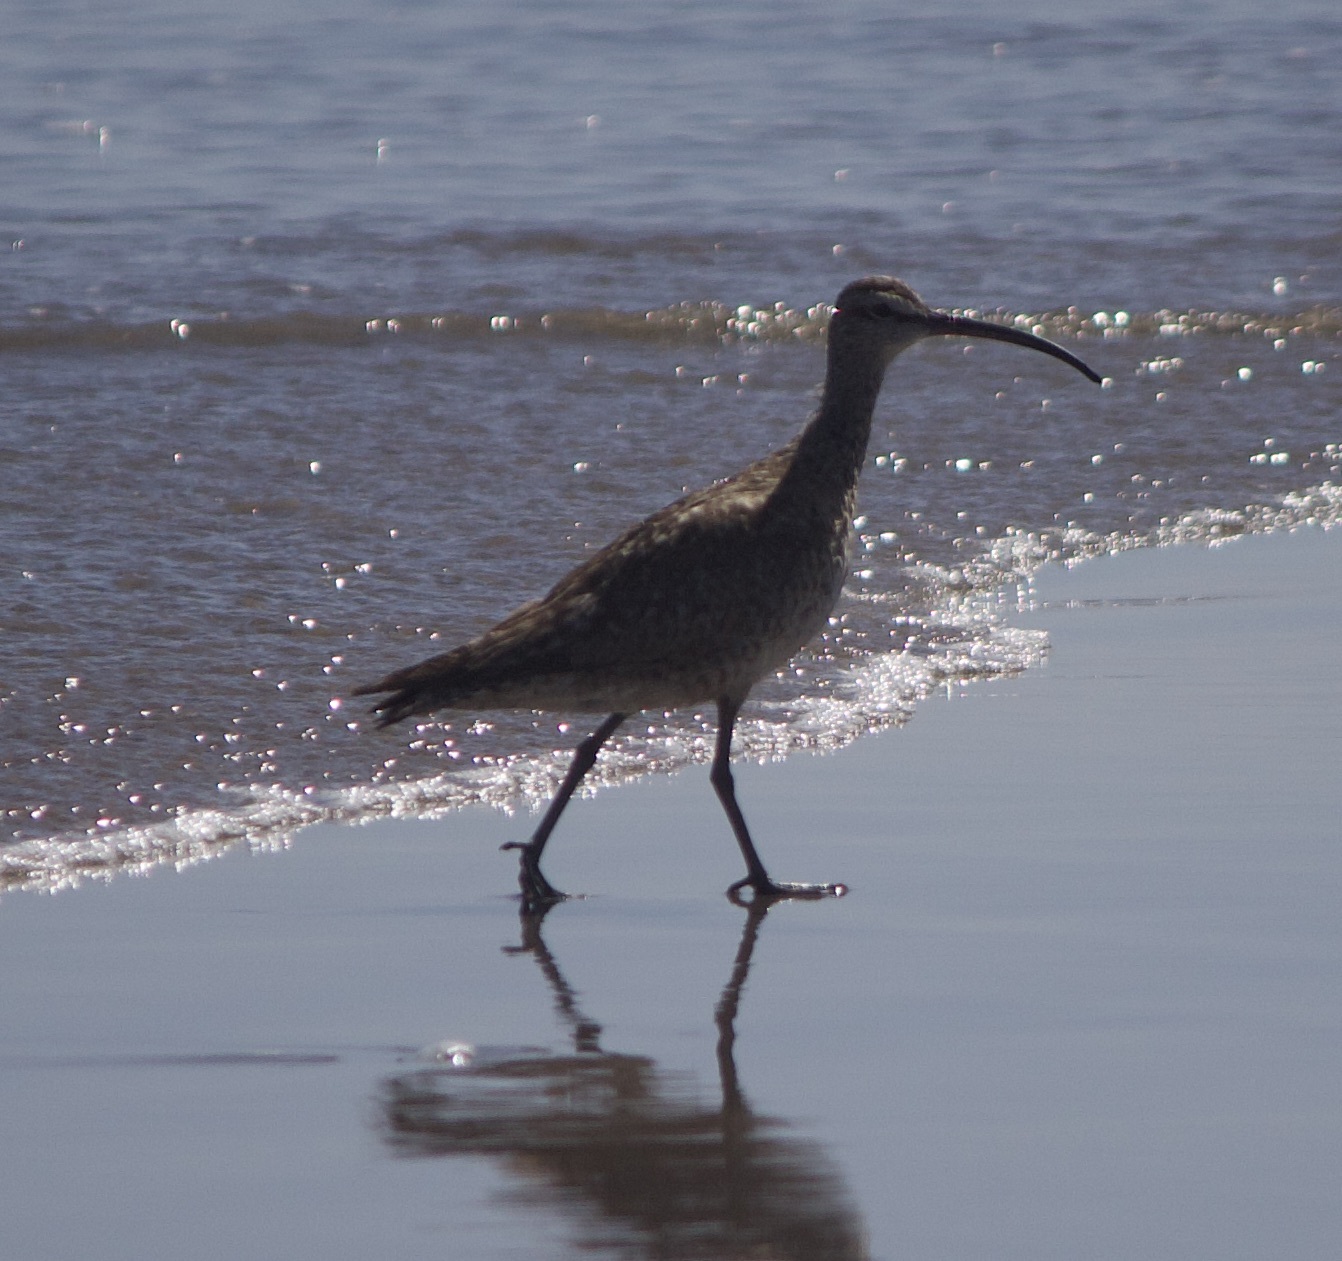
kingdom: Animalia
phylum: Chordata
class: Aves
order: Charadriiformes
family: Scolopacidae
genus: Numenius
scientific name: Numenius phaeopus
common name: Whimbrel
